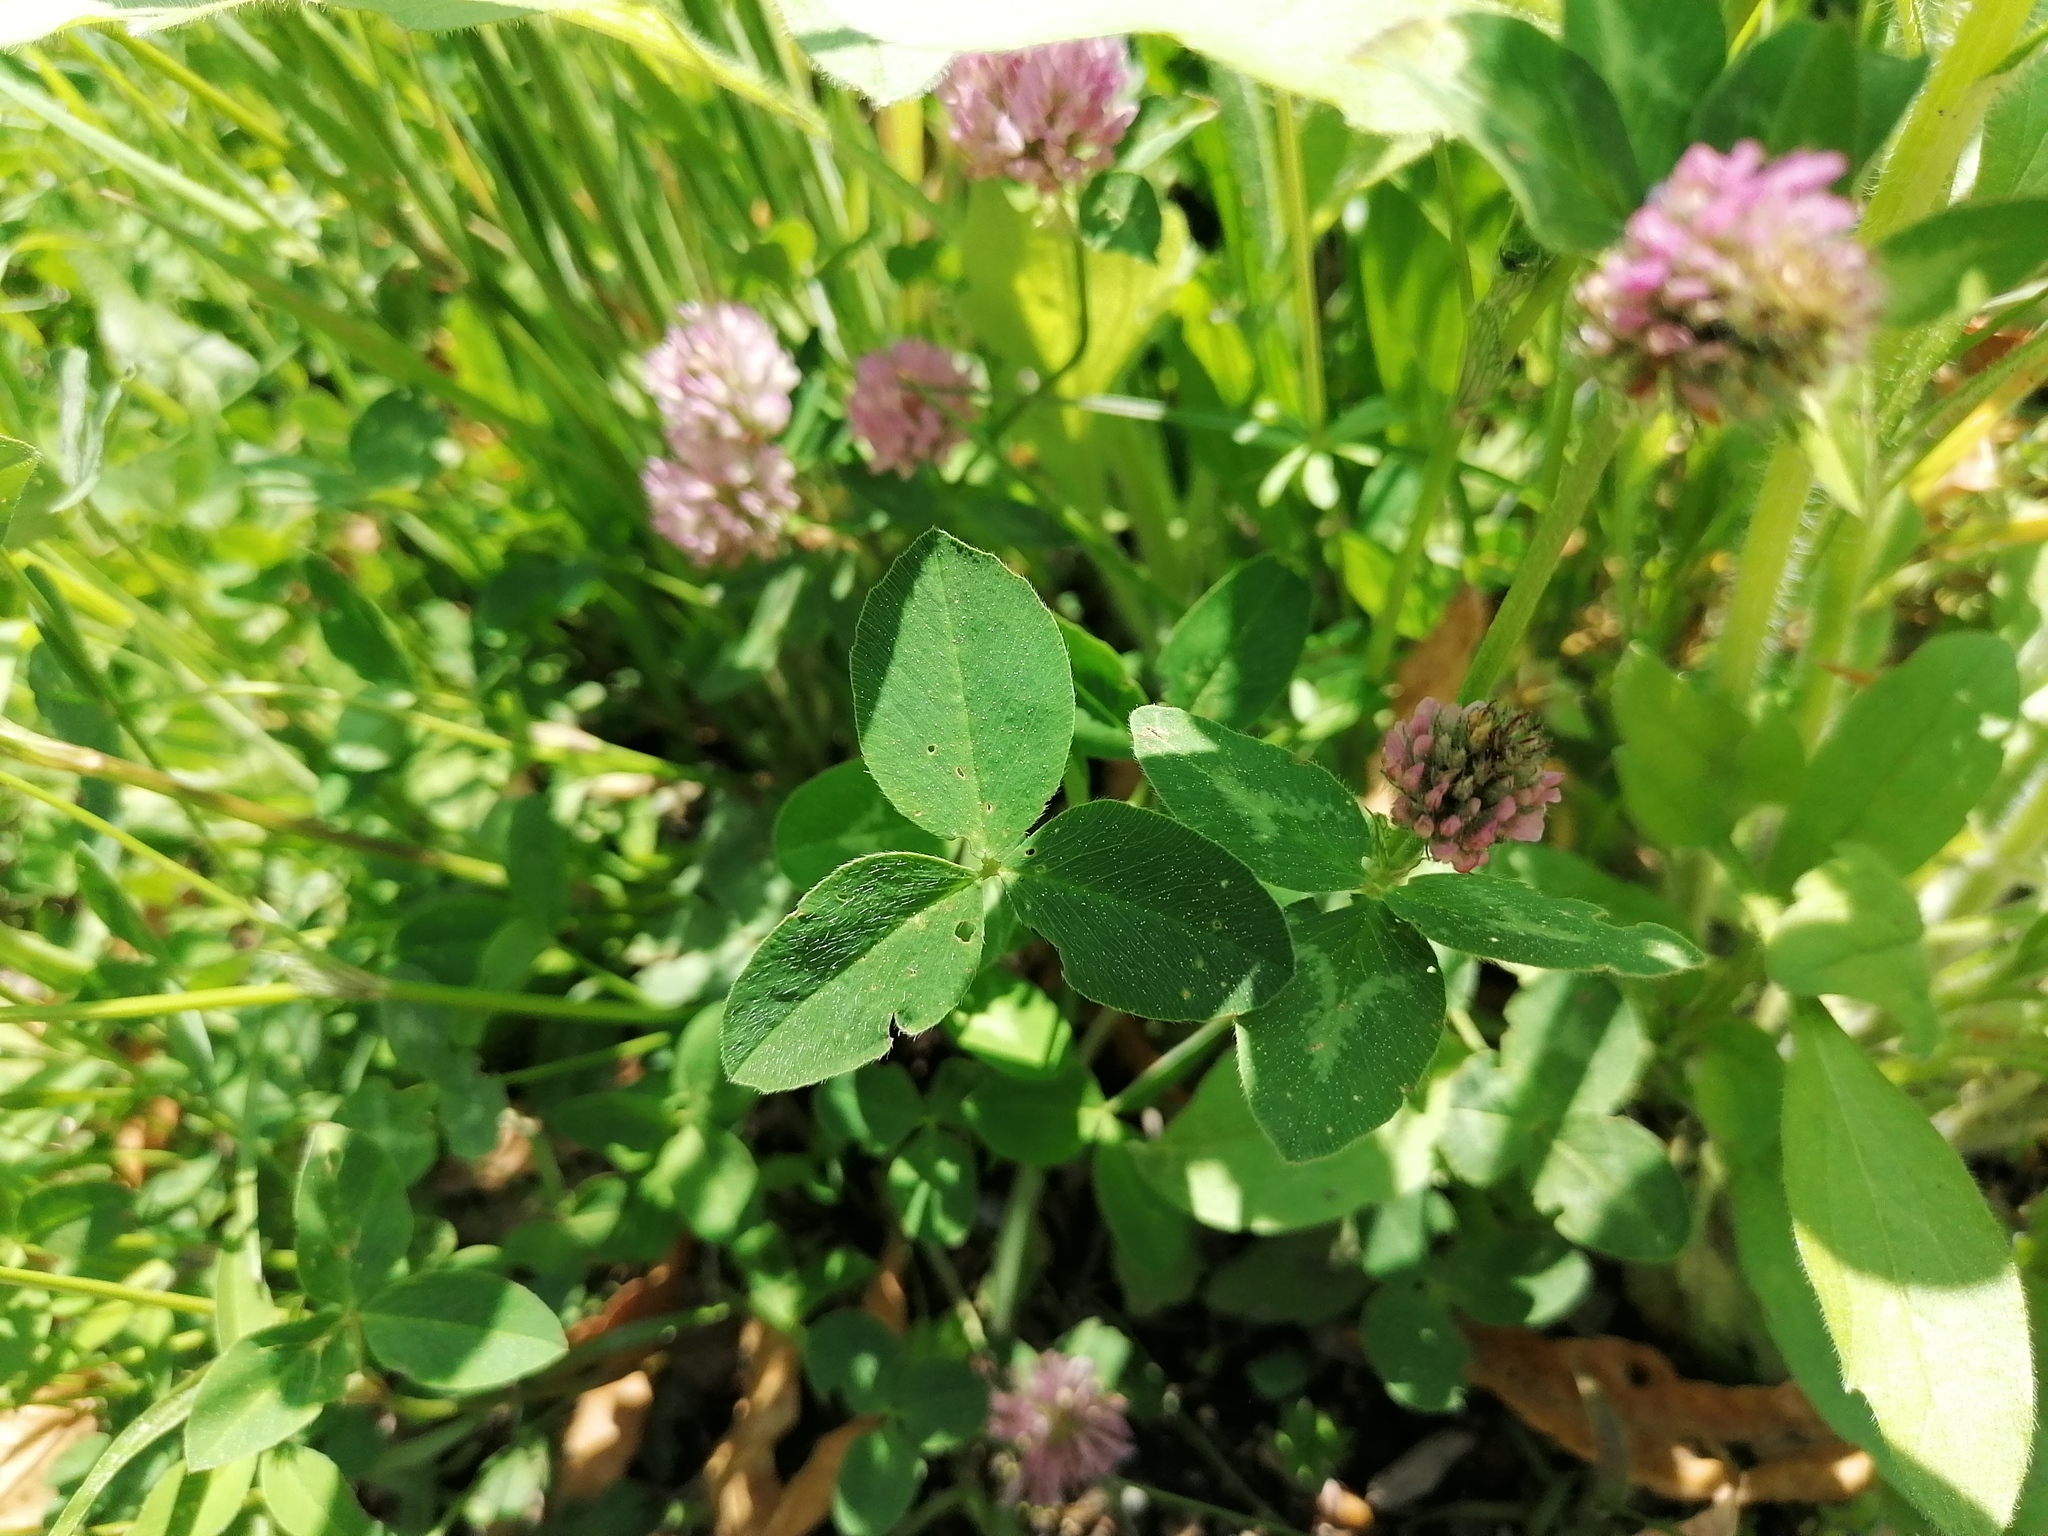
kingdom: Plantae
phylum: Tracheophyta
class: Magnoliopsida
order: Fabales
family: Fabaceae
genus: Trifolium
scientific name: Trifolium pratense
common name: Red clover
